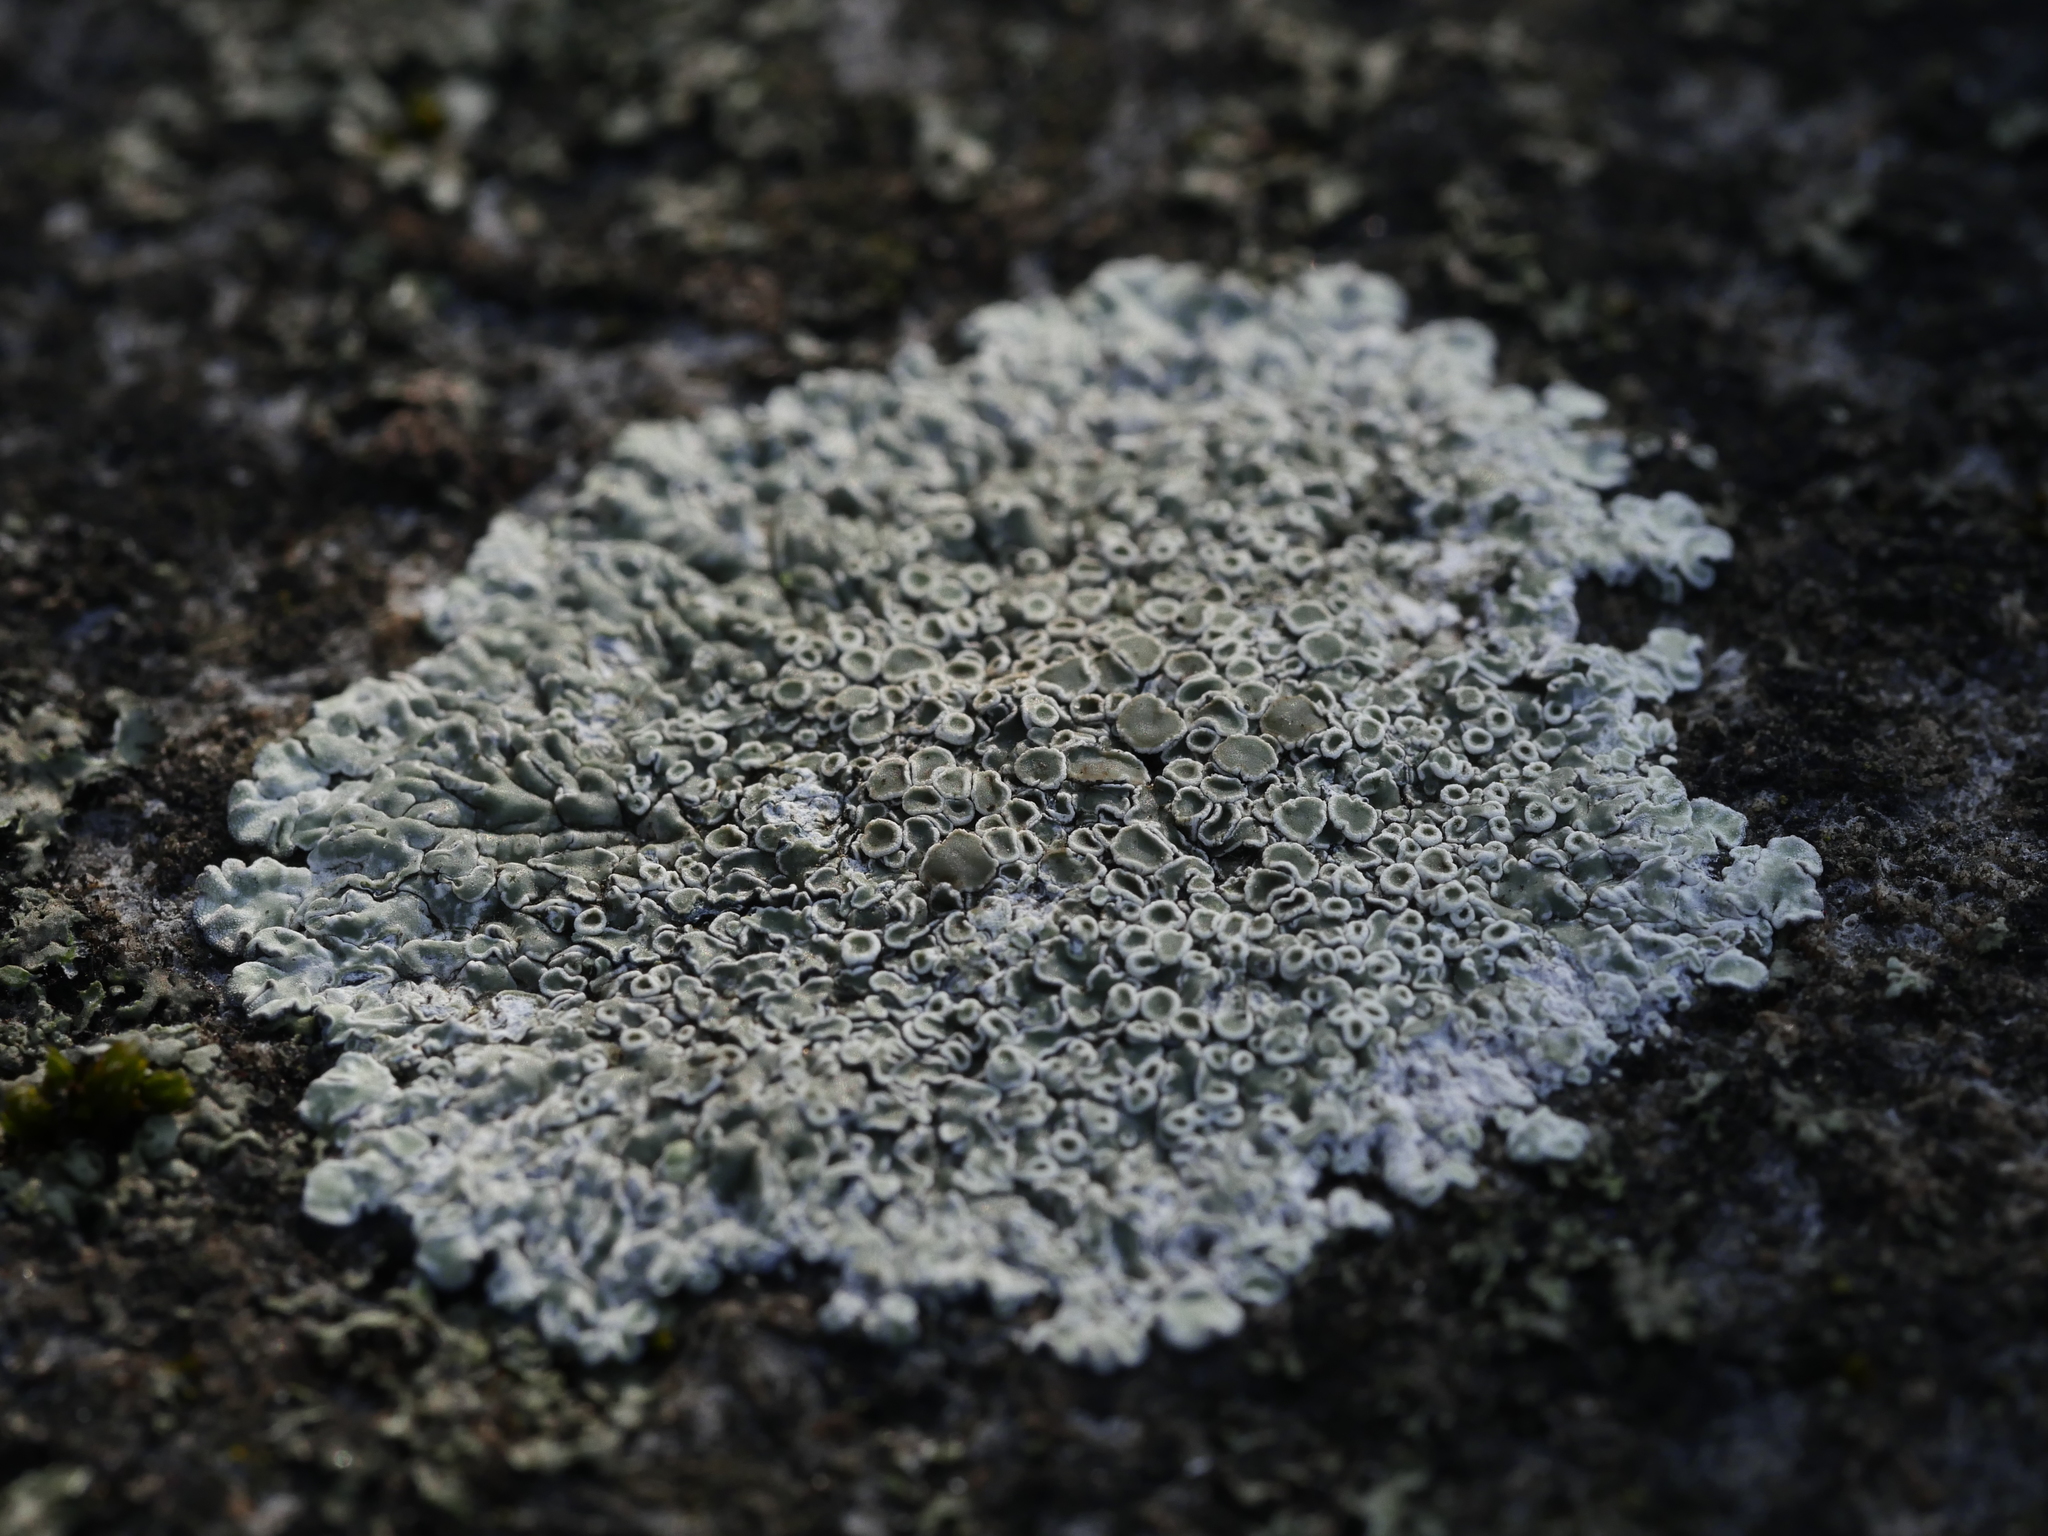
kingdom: Fungi
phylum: Ascomycota
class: Lecanoromycetes
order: Lecanorales
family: Lecanoraceae
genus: Protoparmeliopsis
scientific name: Protoparmeliopsis muralis
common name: Stonewall rim lichen
